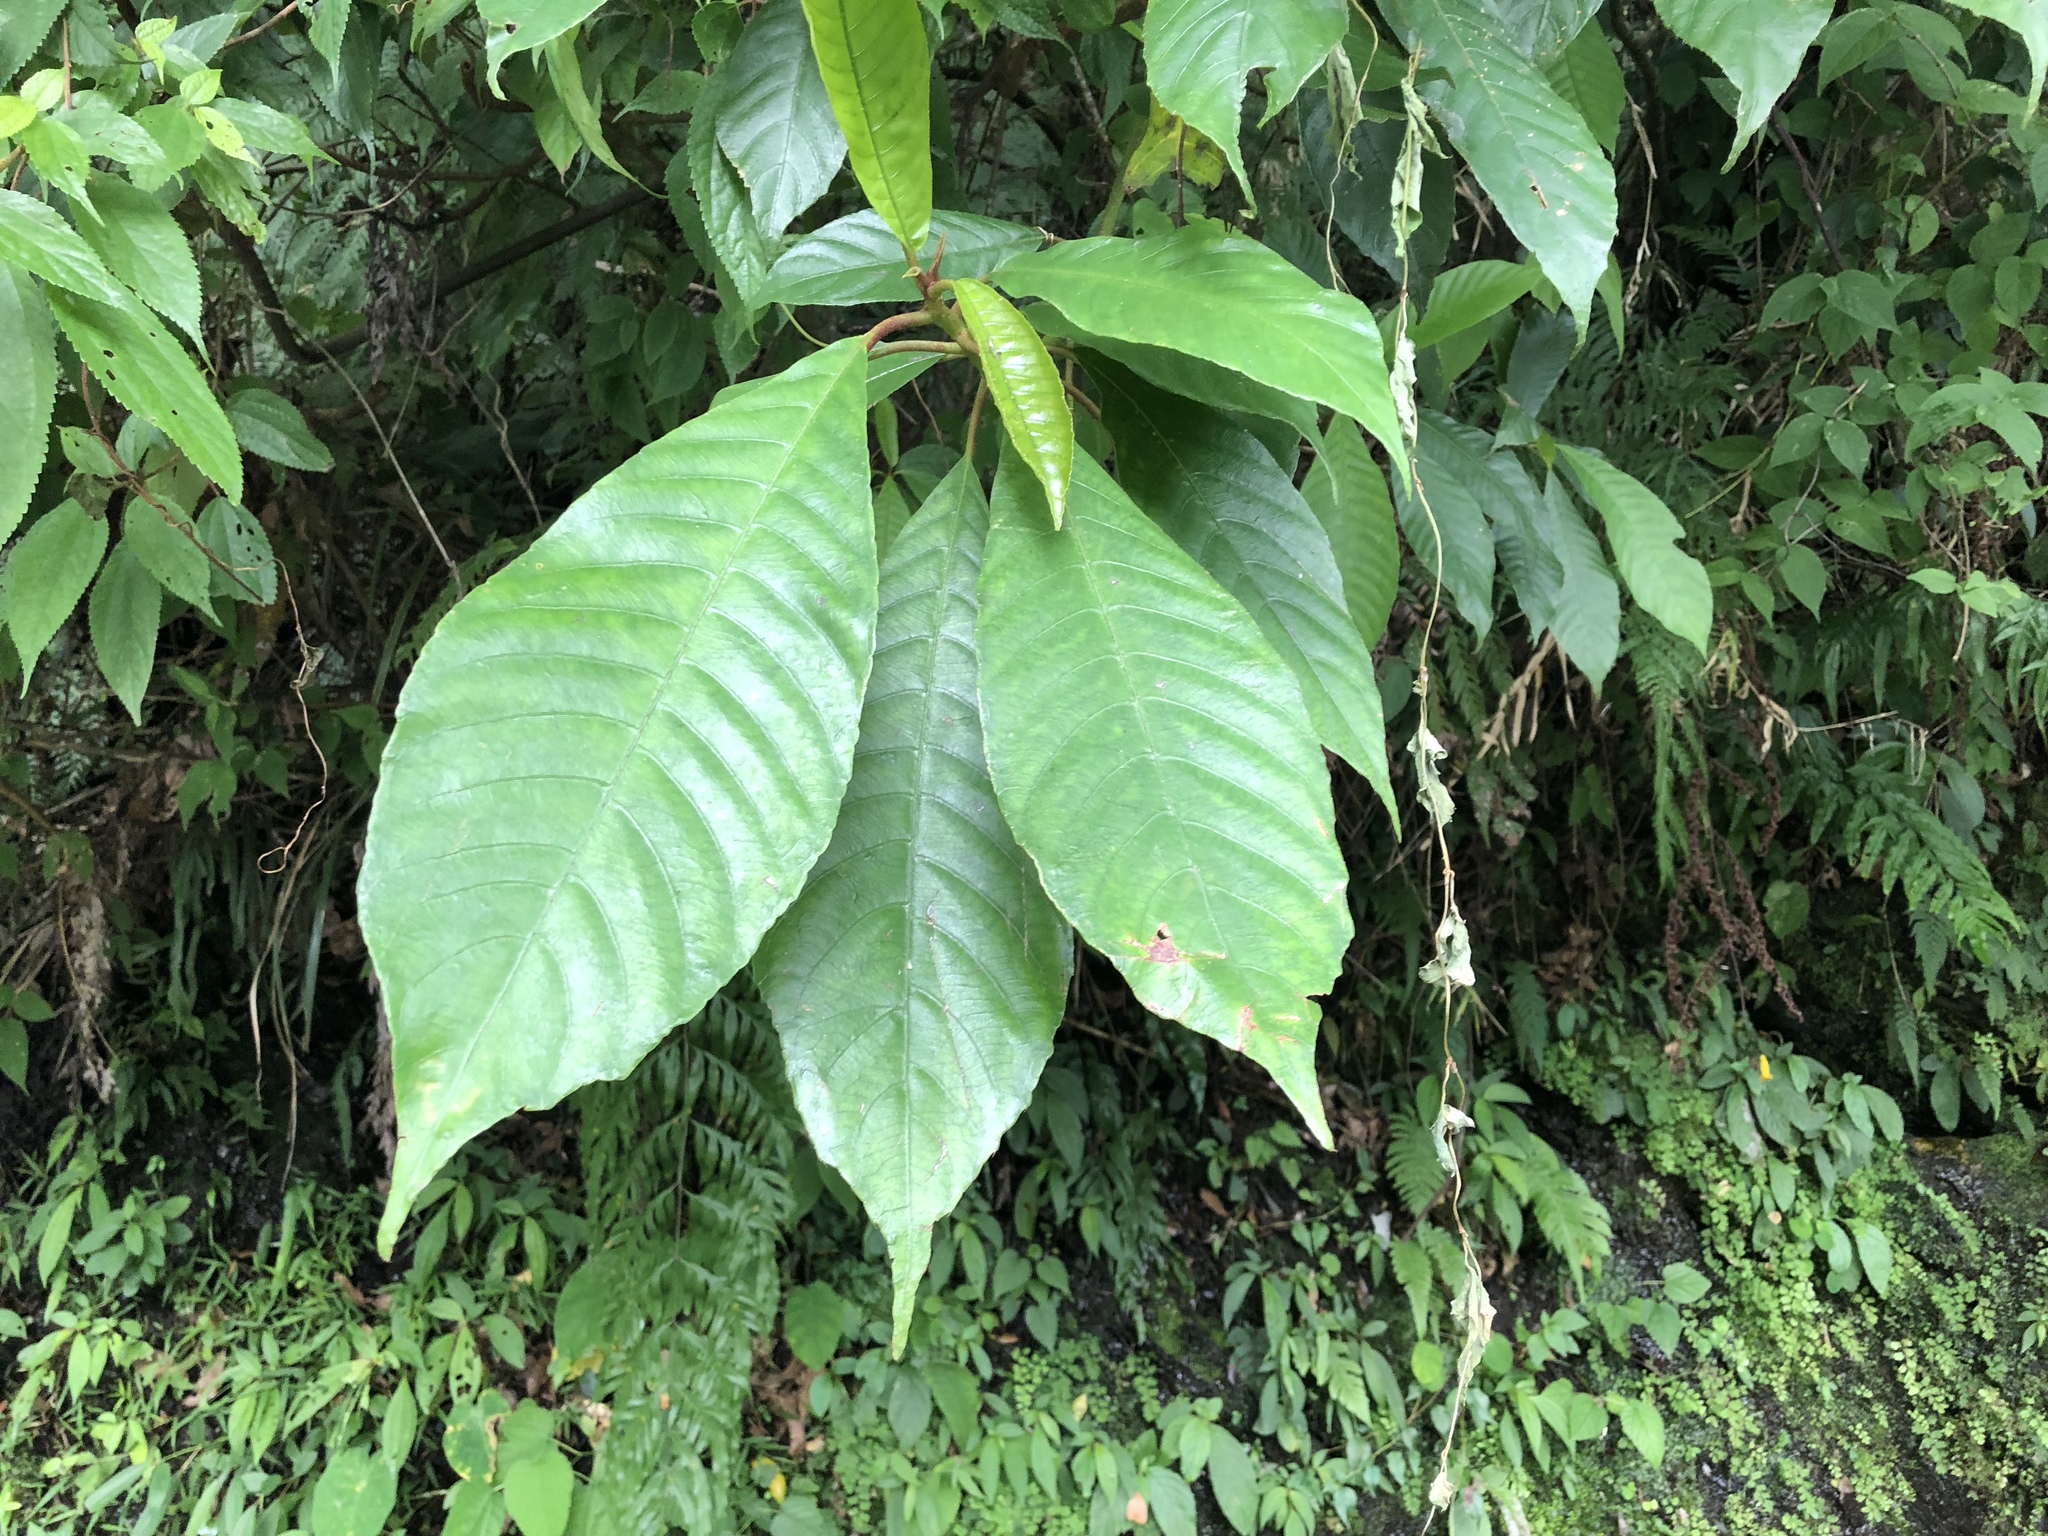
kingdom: Plantae
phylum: Tracheophyta
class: Magnoliopsida
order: Ericales
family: Actinidiaceae
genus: Saurauia
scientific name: Saurauia tristyla
